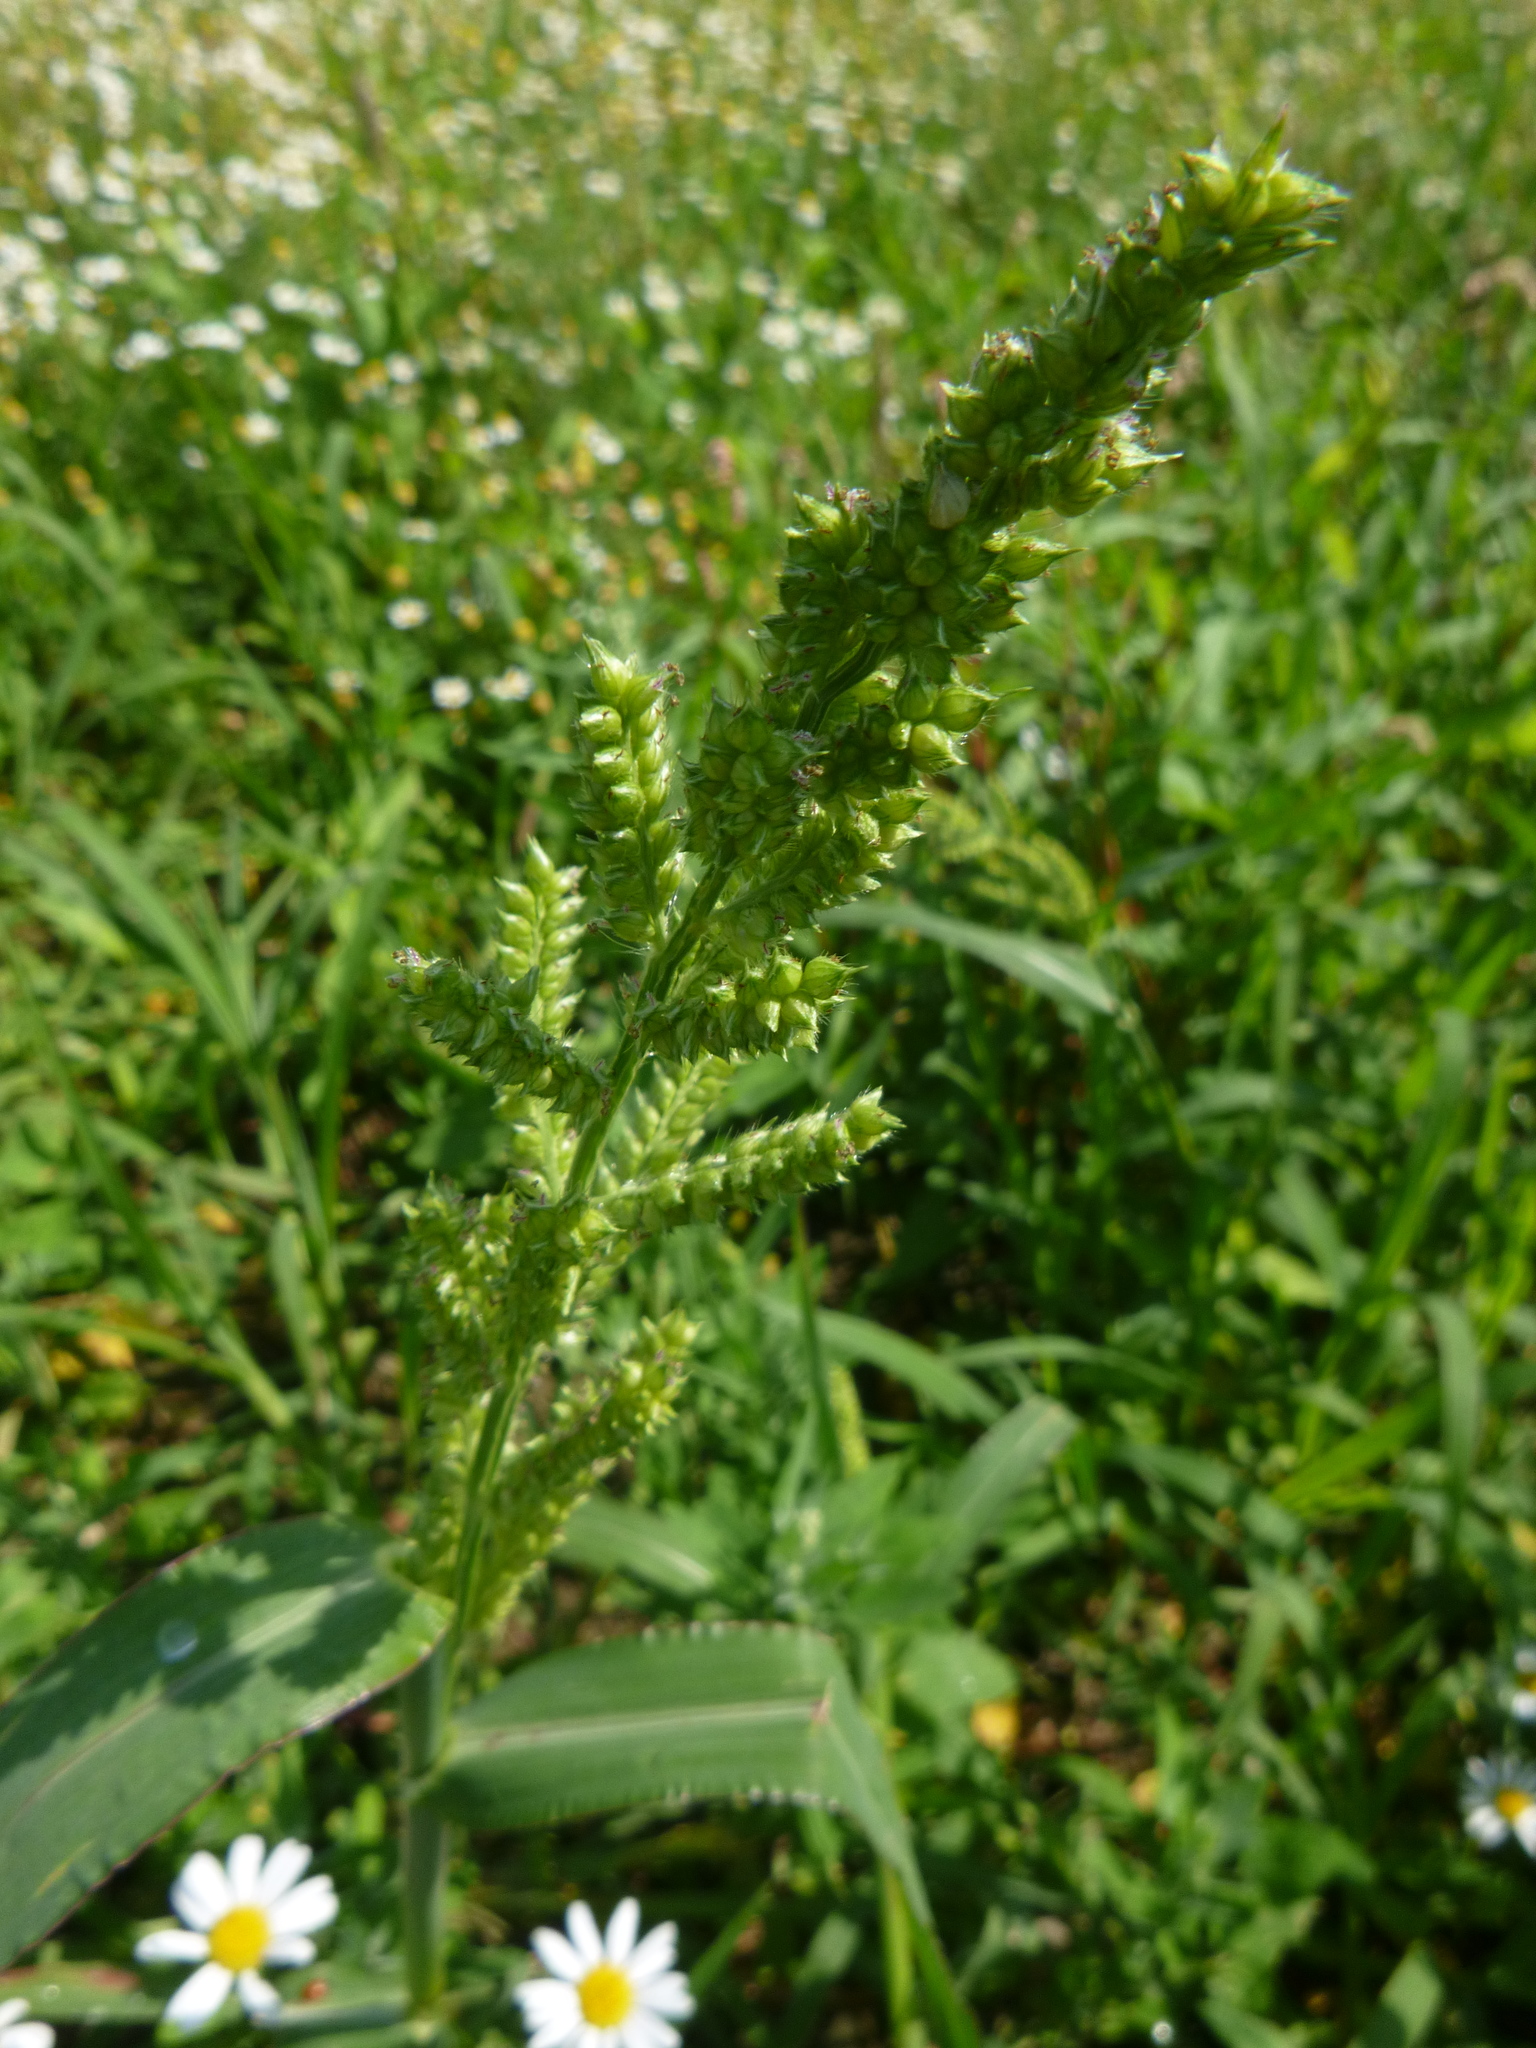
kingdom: Plantae
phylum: Tracheophyta
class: Liliopsida
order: Poales
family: Poaceae
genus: Echinochloa
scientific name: Echinochloa crus-galli
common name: Cockspur
